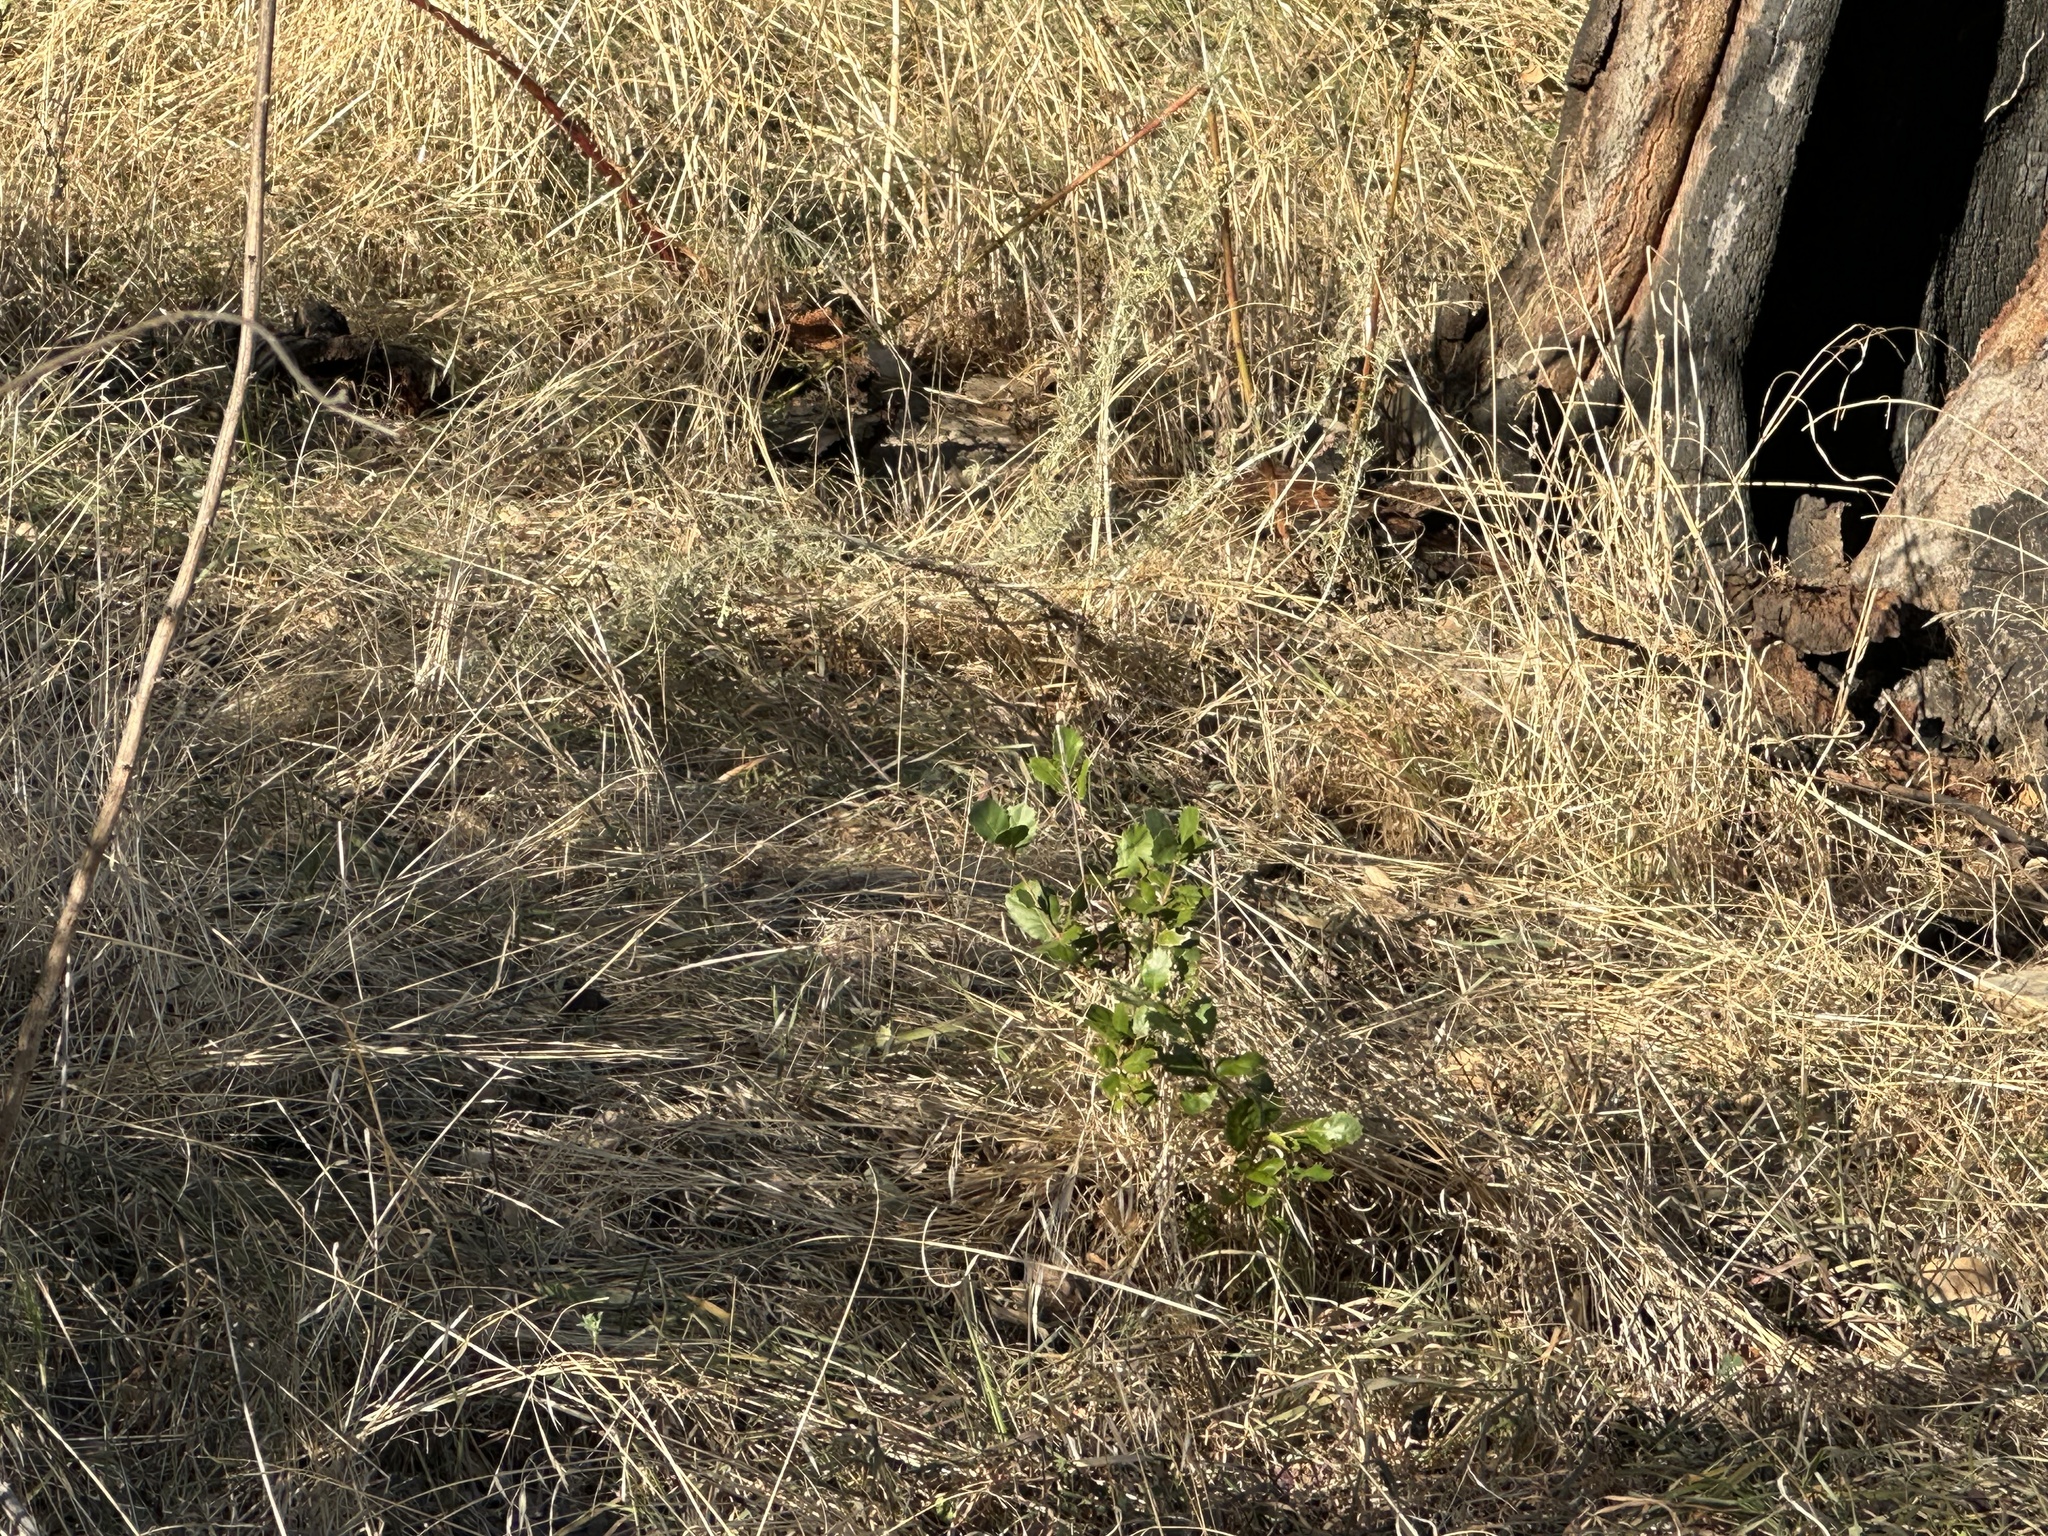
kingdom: Plantae
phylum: Tracheophyta
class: Magnoliopsida
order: Fagales
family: Fagaceae
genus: Quercus
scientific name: Quercus agrifolia
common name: California live oak
